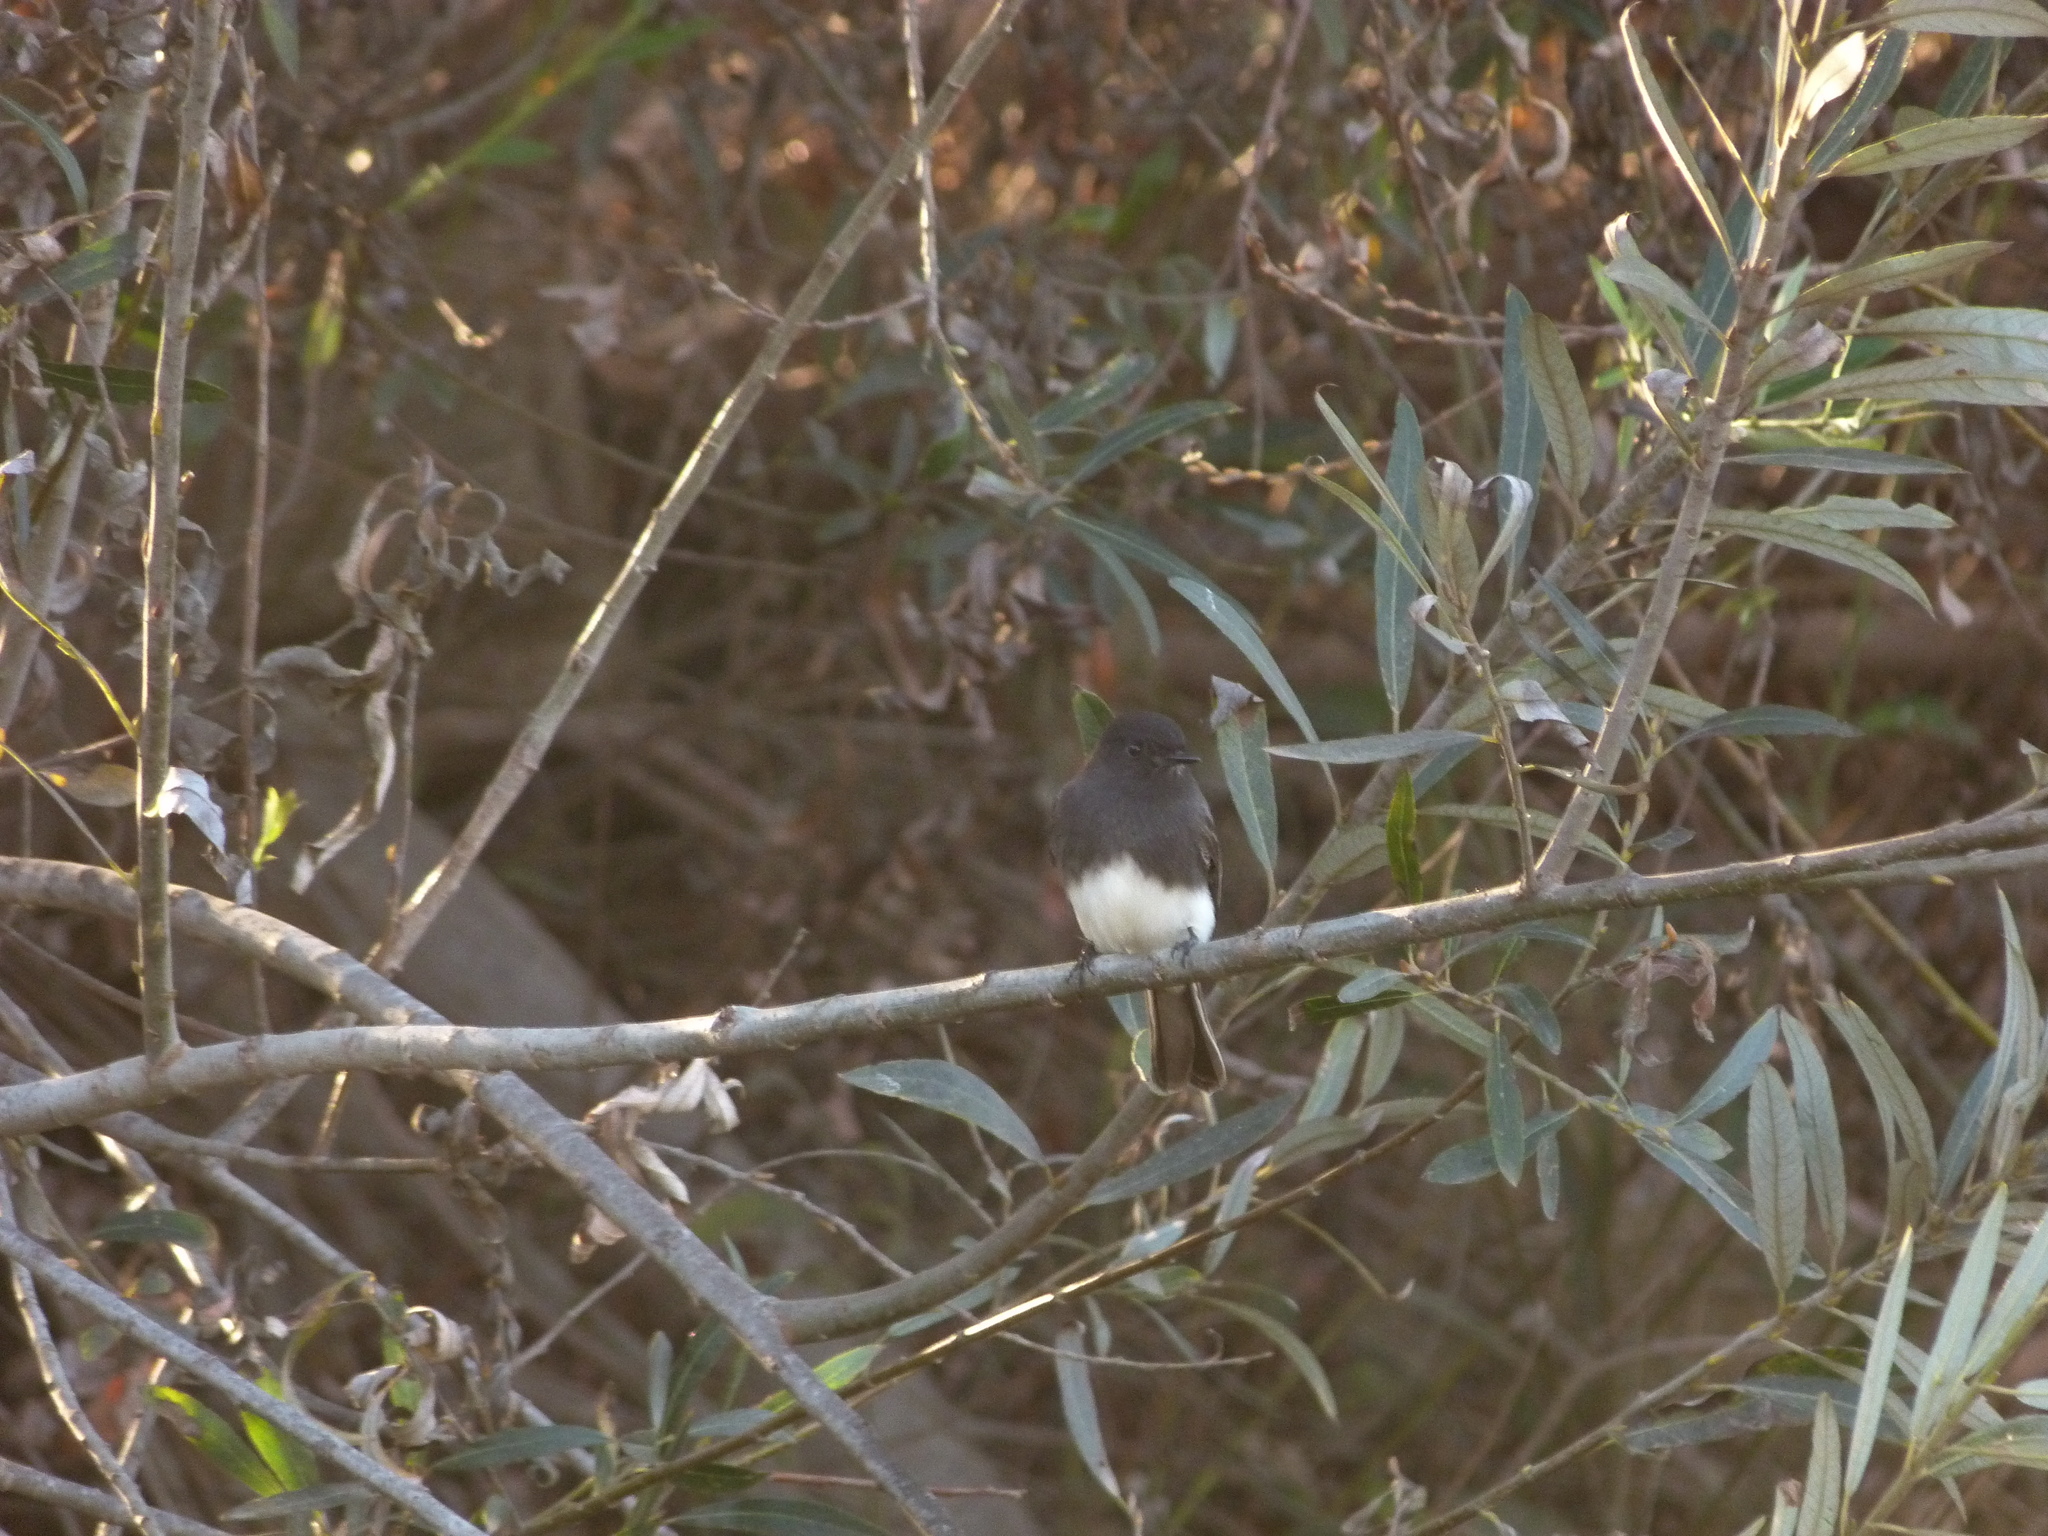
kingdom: Animalia
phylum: Chordata
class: Aves
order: Passeriformes
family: Tyrannidae
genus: Sayornis
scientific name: Sayornis nigricans
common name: Black phoebe
